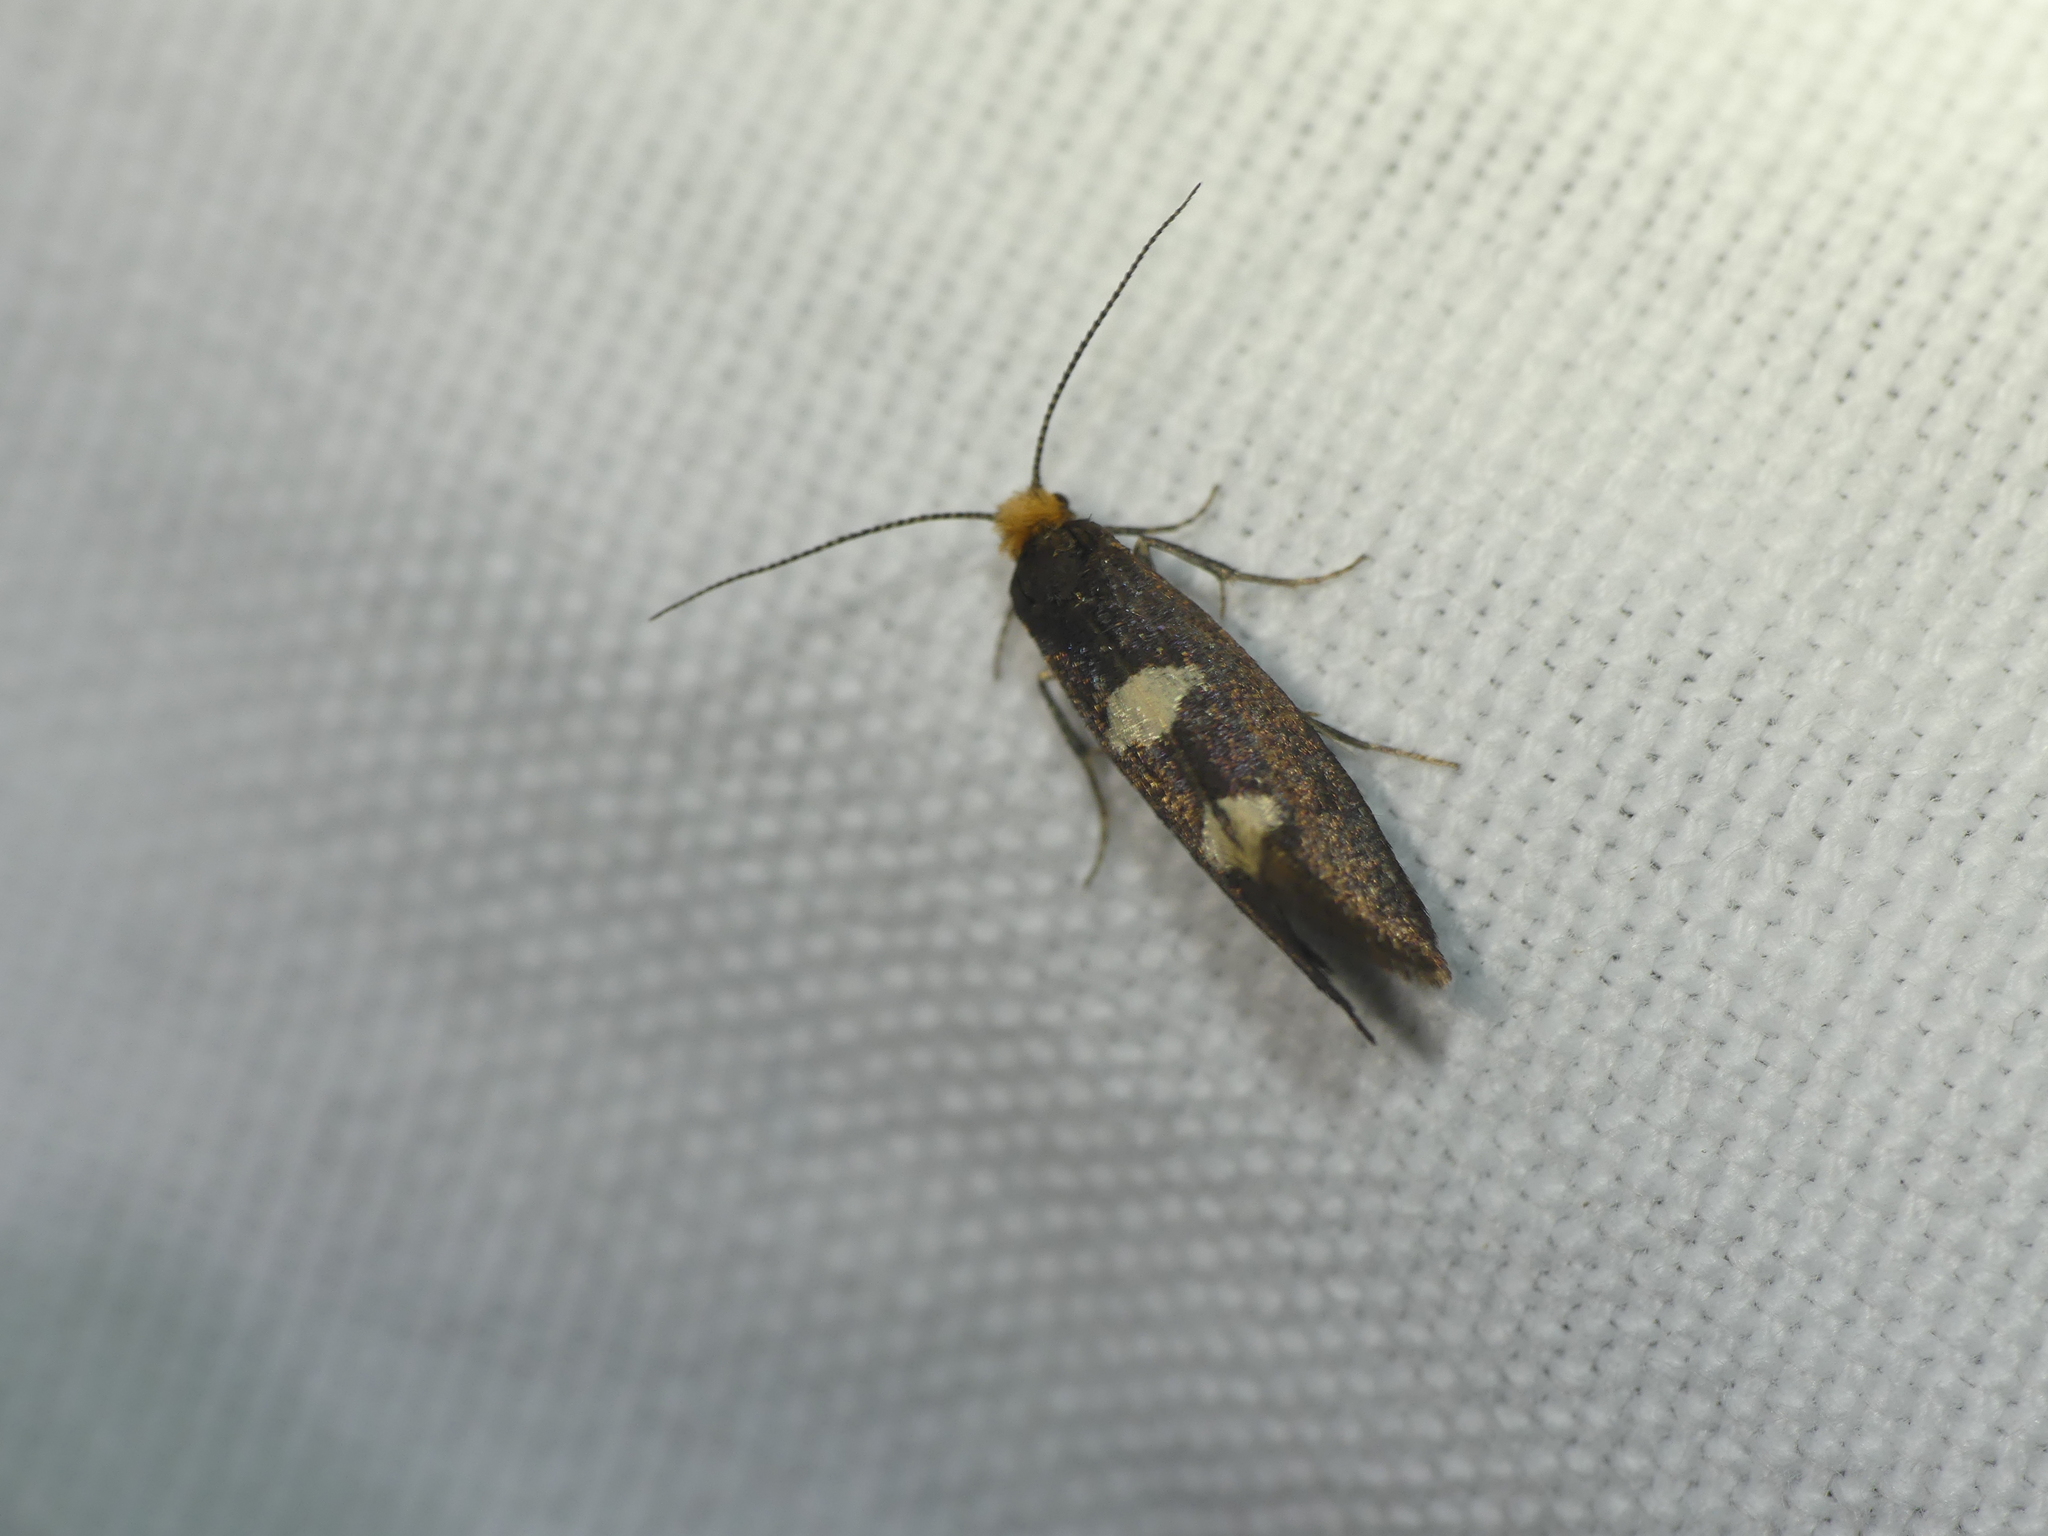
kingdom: Animalia
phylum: Arthropoda
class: Insecta
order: Lepidoptera
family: Incurvariidae
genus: Incurvaria
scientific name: Incurvaria masculella
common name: Feathered leaf-cutter
